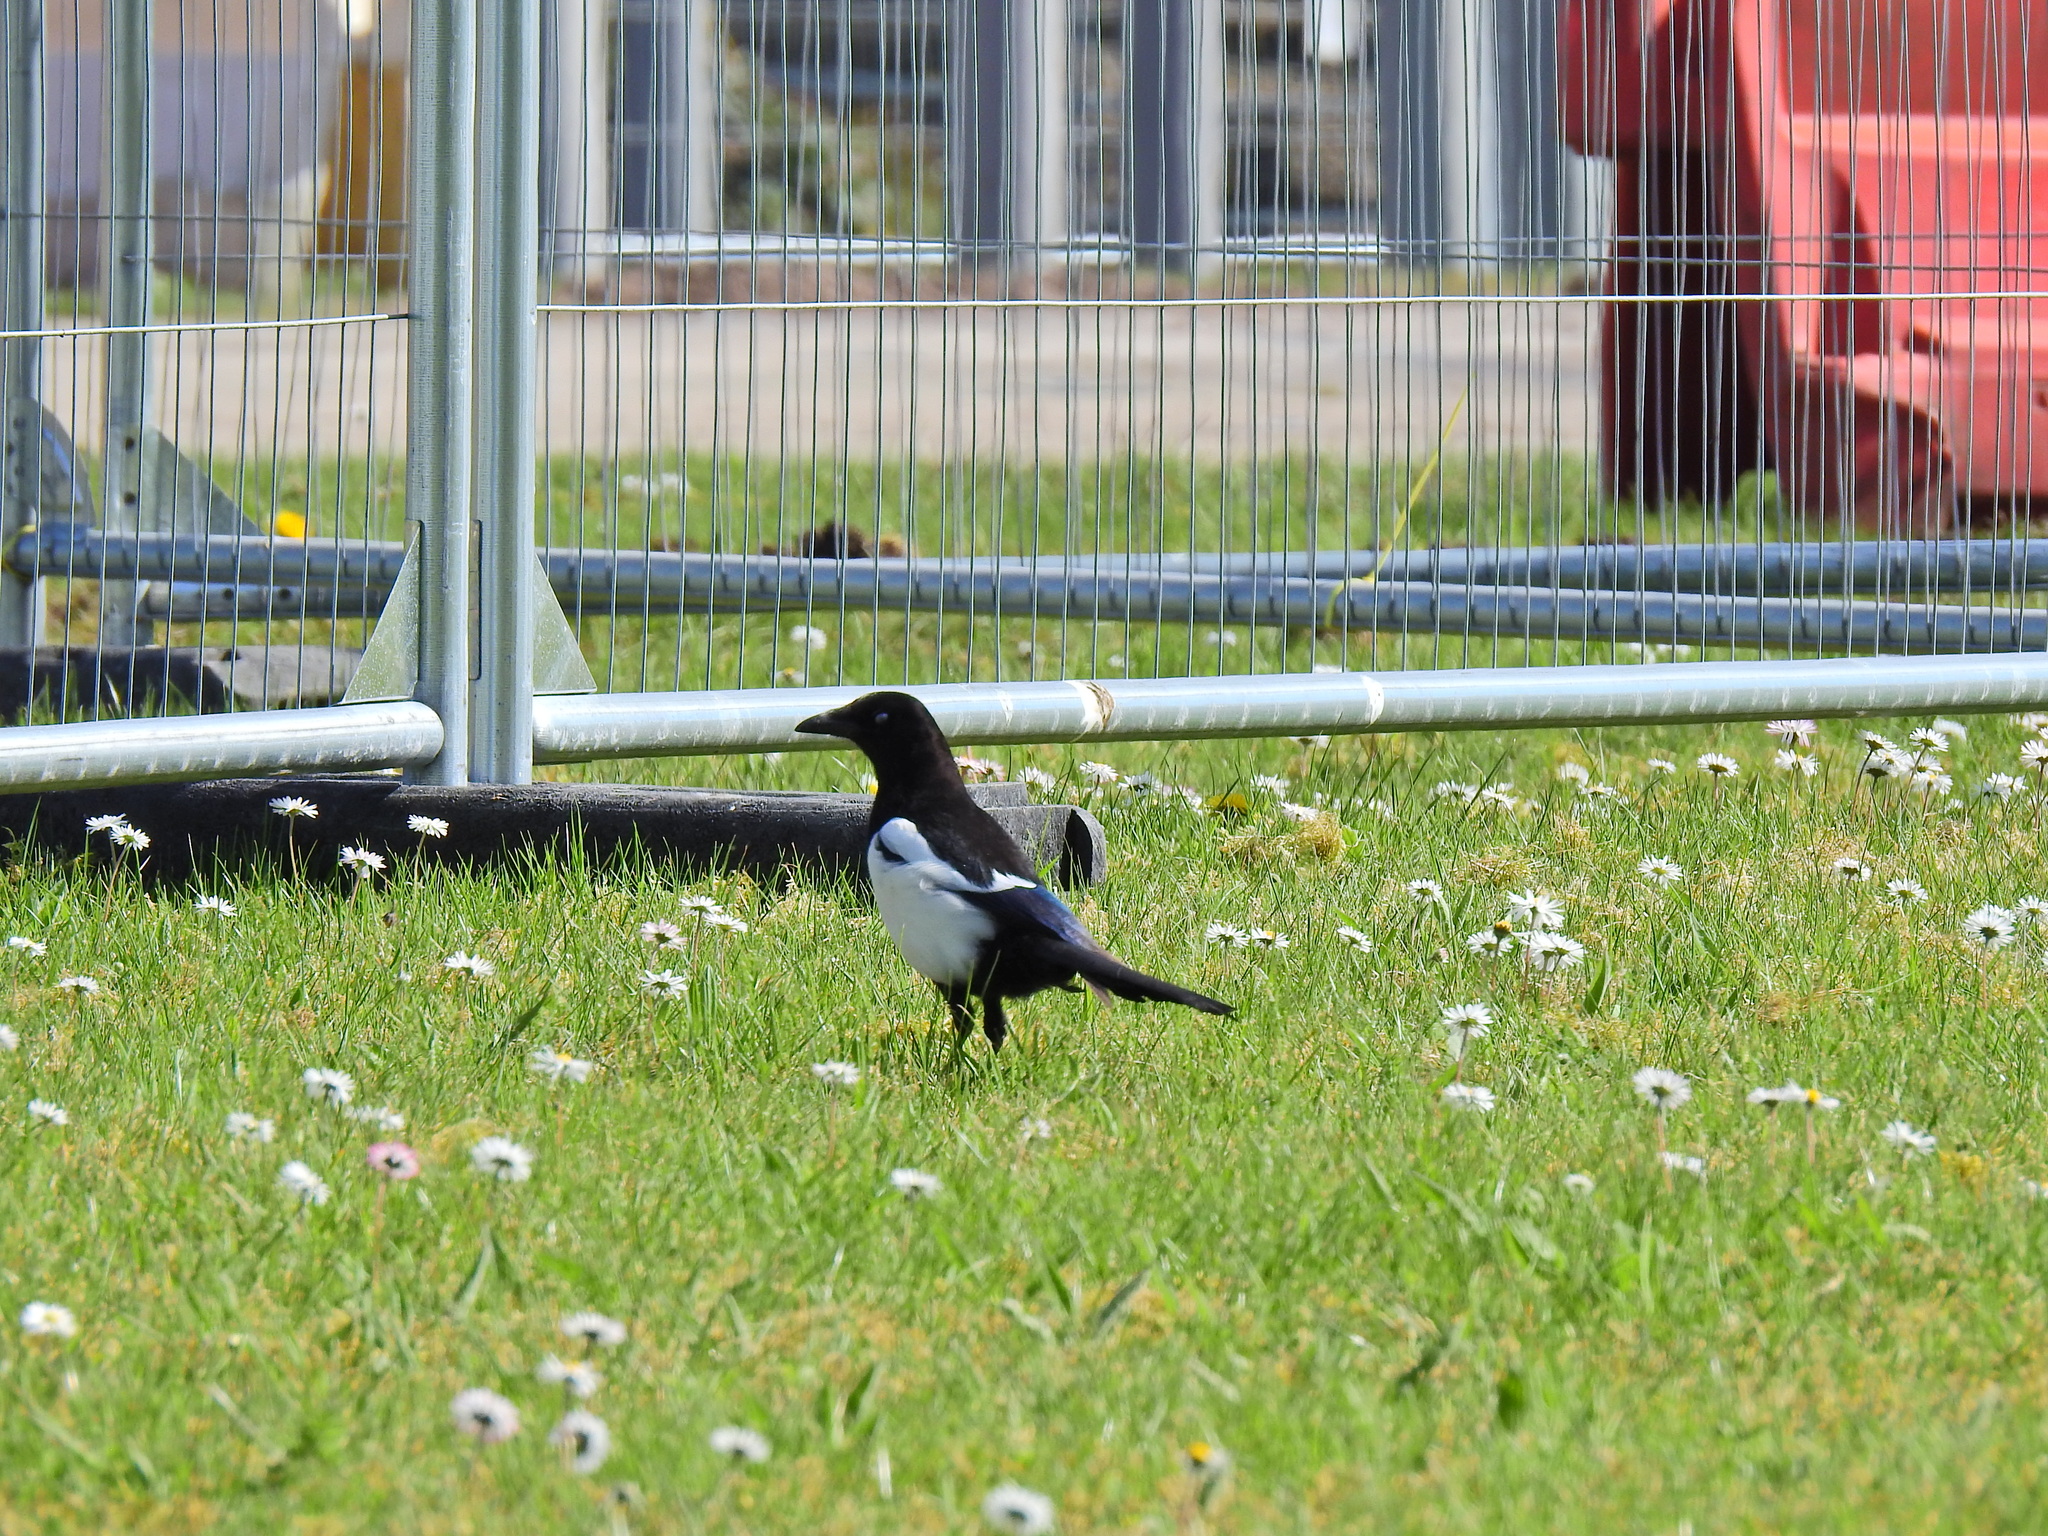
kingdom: Animalia
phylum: Chordata
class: Aves
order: Passeriformes
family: Corvidae
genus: Pica
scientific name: Pica pica
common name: Eurasian magpie
